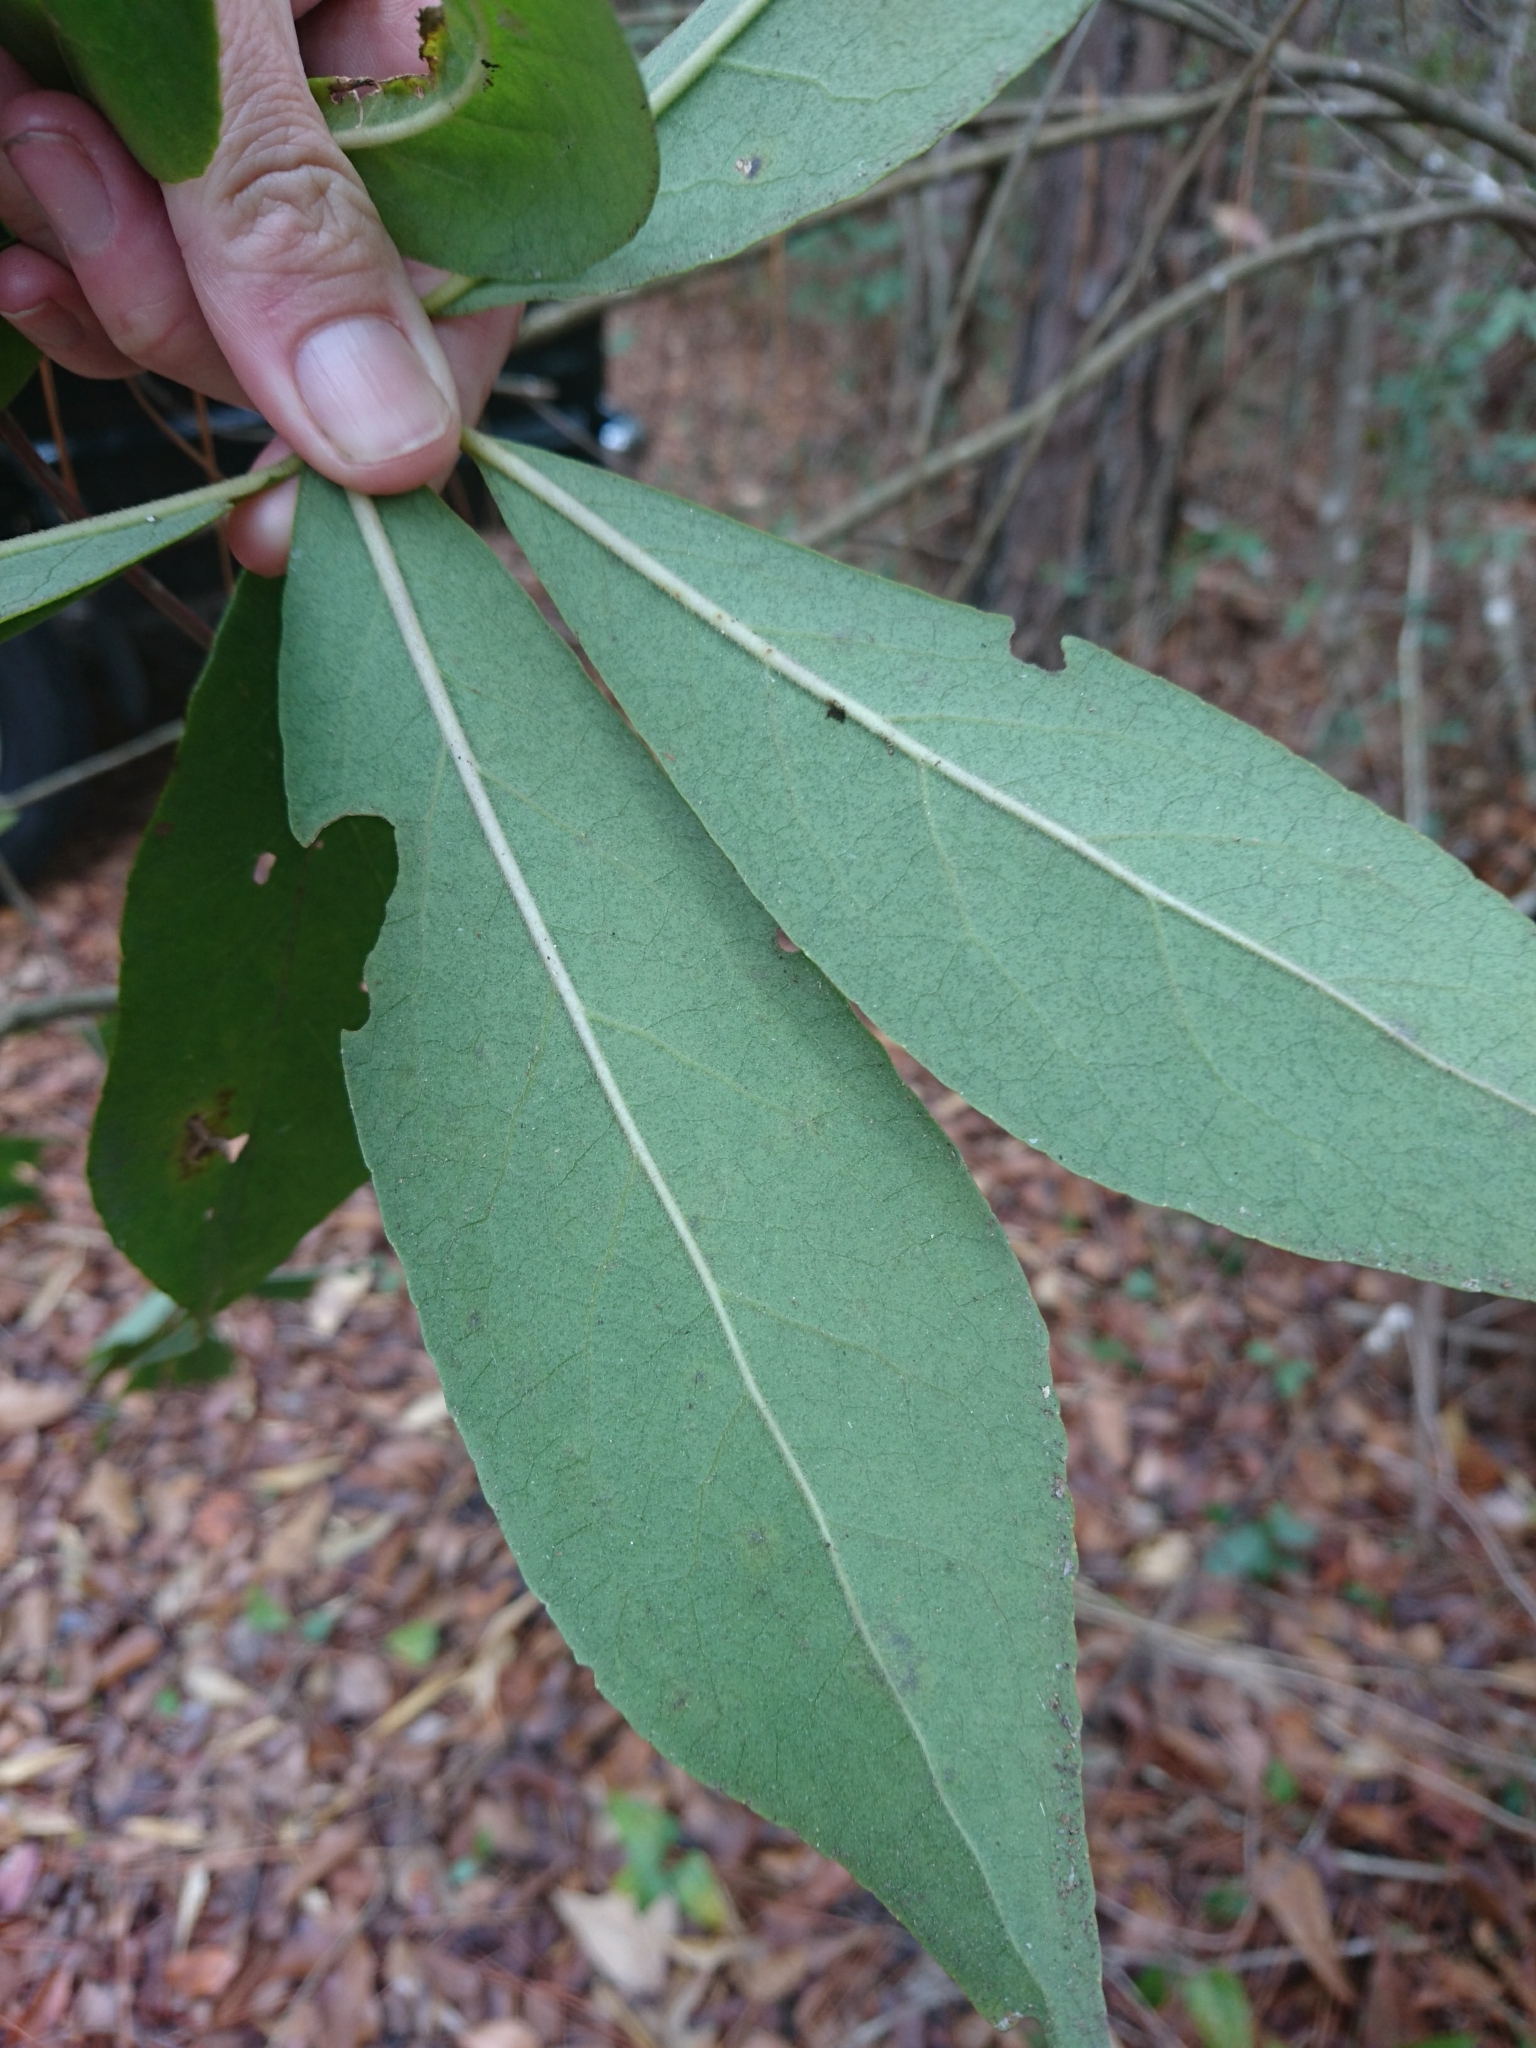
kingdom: Plantae
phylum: Tracheophyta
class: Magnoliopsida
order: Ericales
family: Symplocaceae
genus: Symplocos
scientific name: Symplocos tinctoria
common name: Horse-sugar
